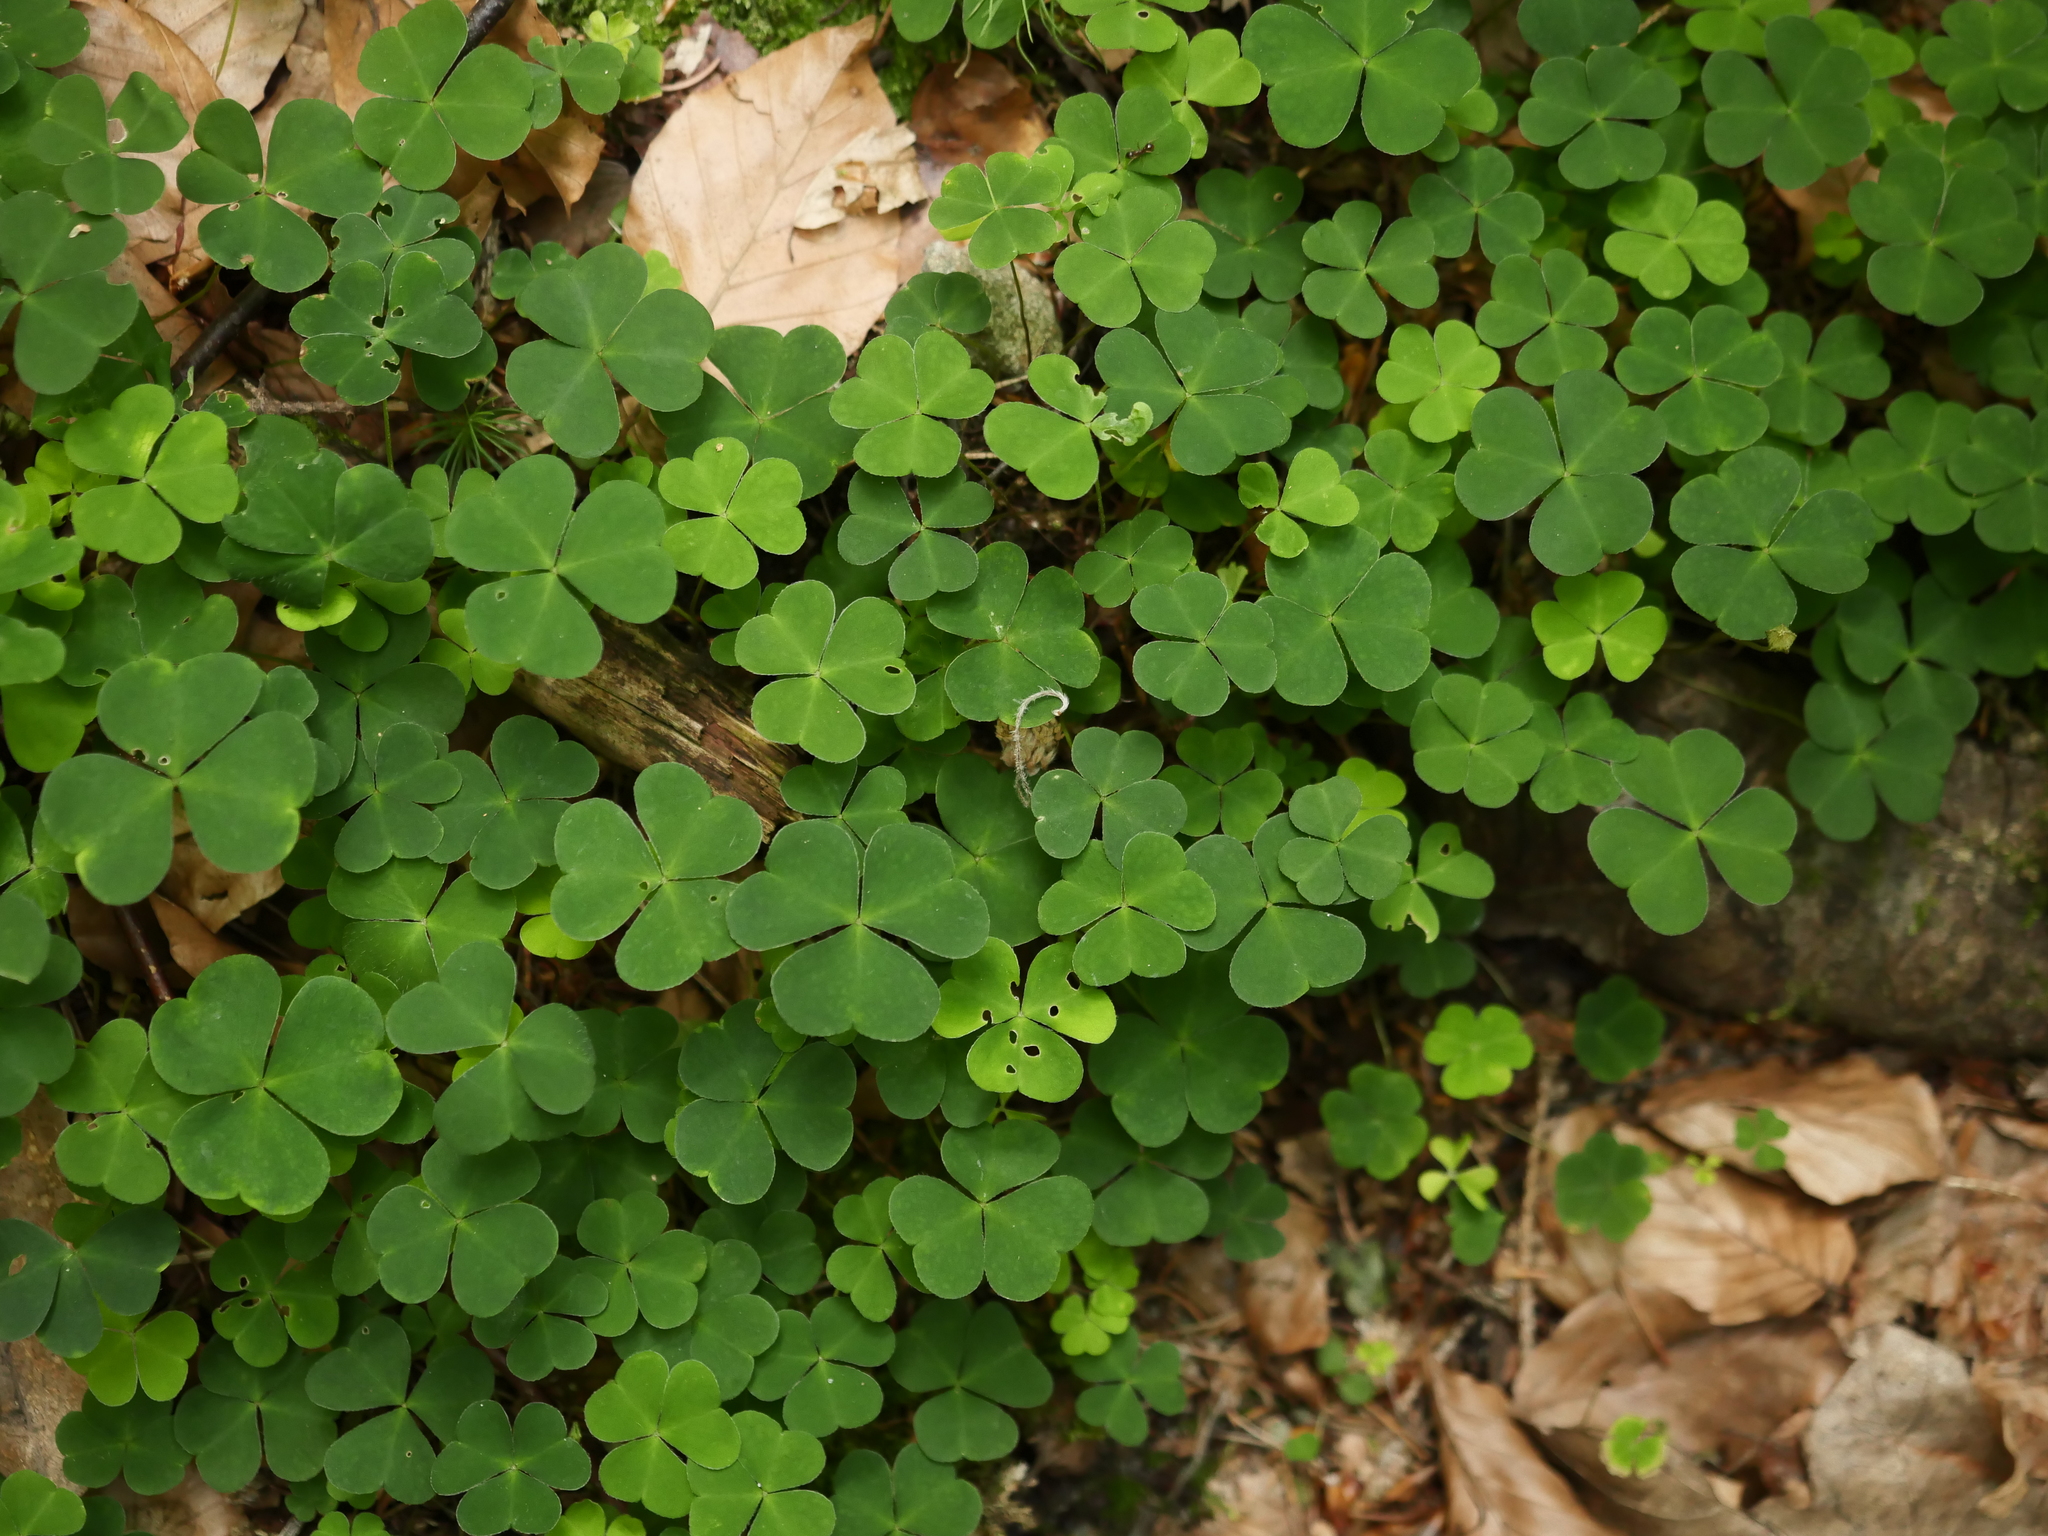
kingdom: Plantae
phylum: Tracheophyta
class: Magnoliopsida
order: Oxalidales
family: Oxalidaceae
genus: Oxalis
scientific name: Oxalis acetosella
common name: Wood-sorrel
